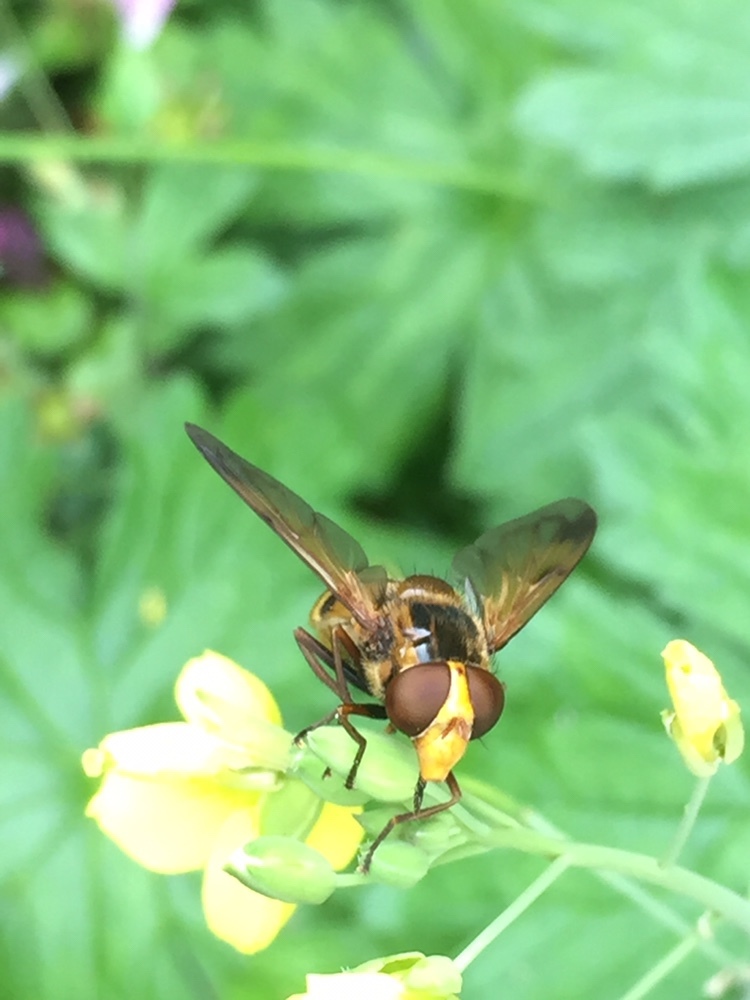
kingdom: Animalia
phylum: Arthropoda
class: Insecta
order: Diptera
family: Syrphidae
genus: Volucella
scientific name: Volucella inanis
